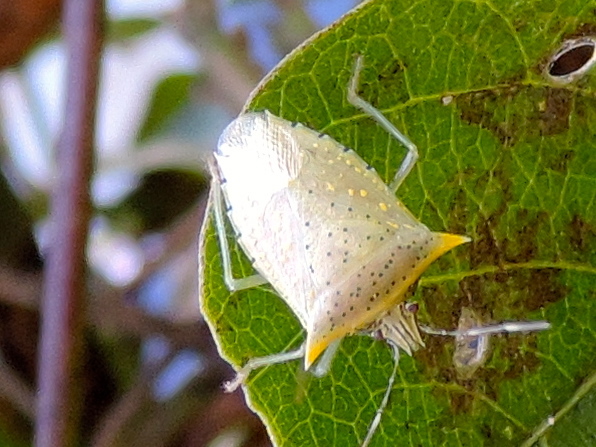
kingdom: Animalia
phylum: Arthropoda
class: Insecta
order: Hemiptera
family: Pentatomidae
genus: Arvelius
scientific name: Arvelius
